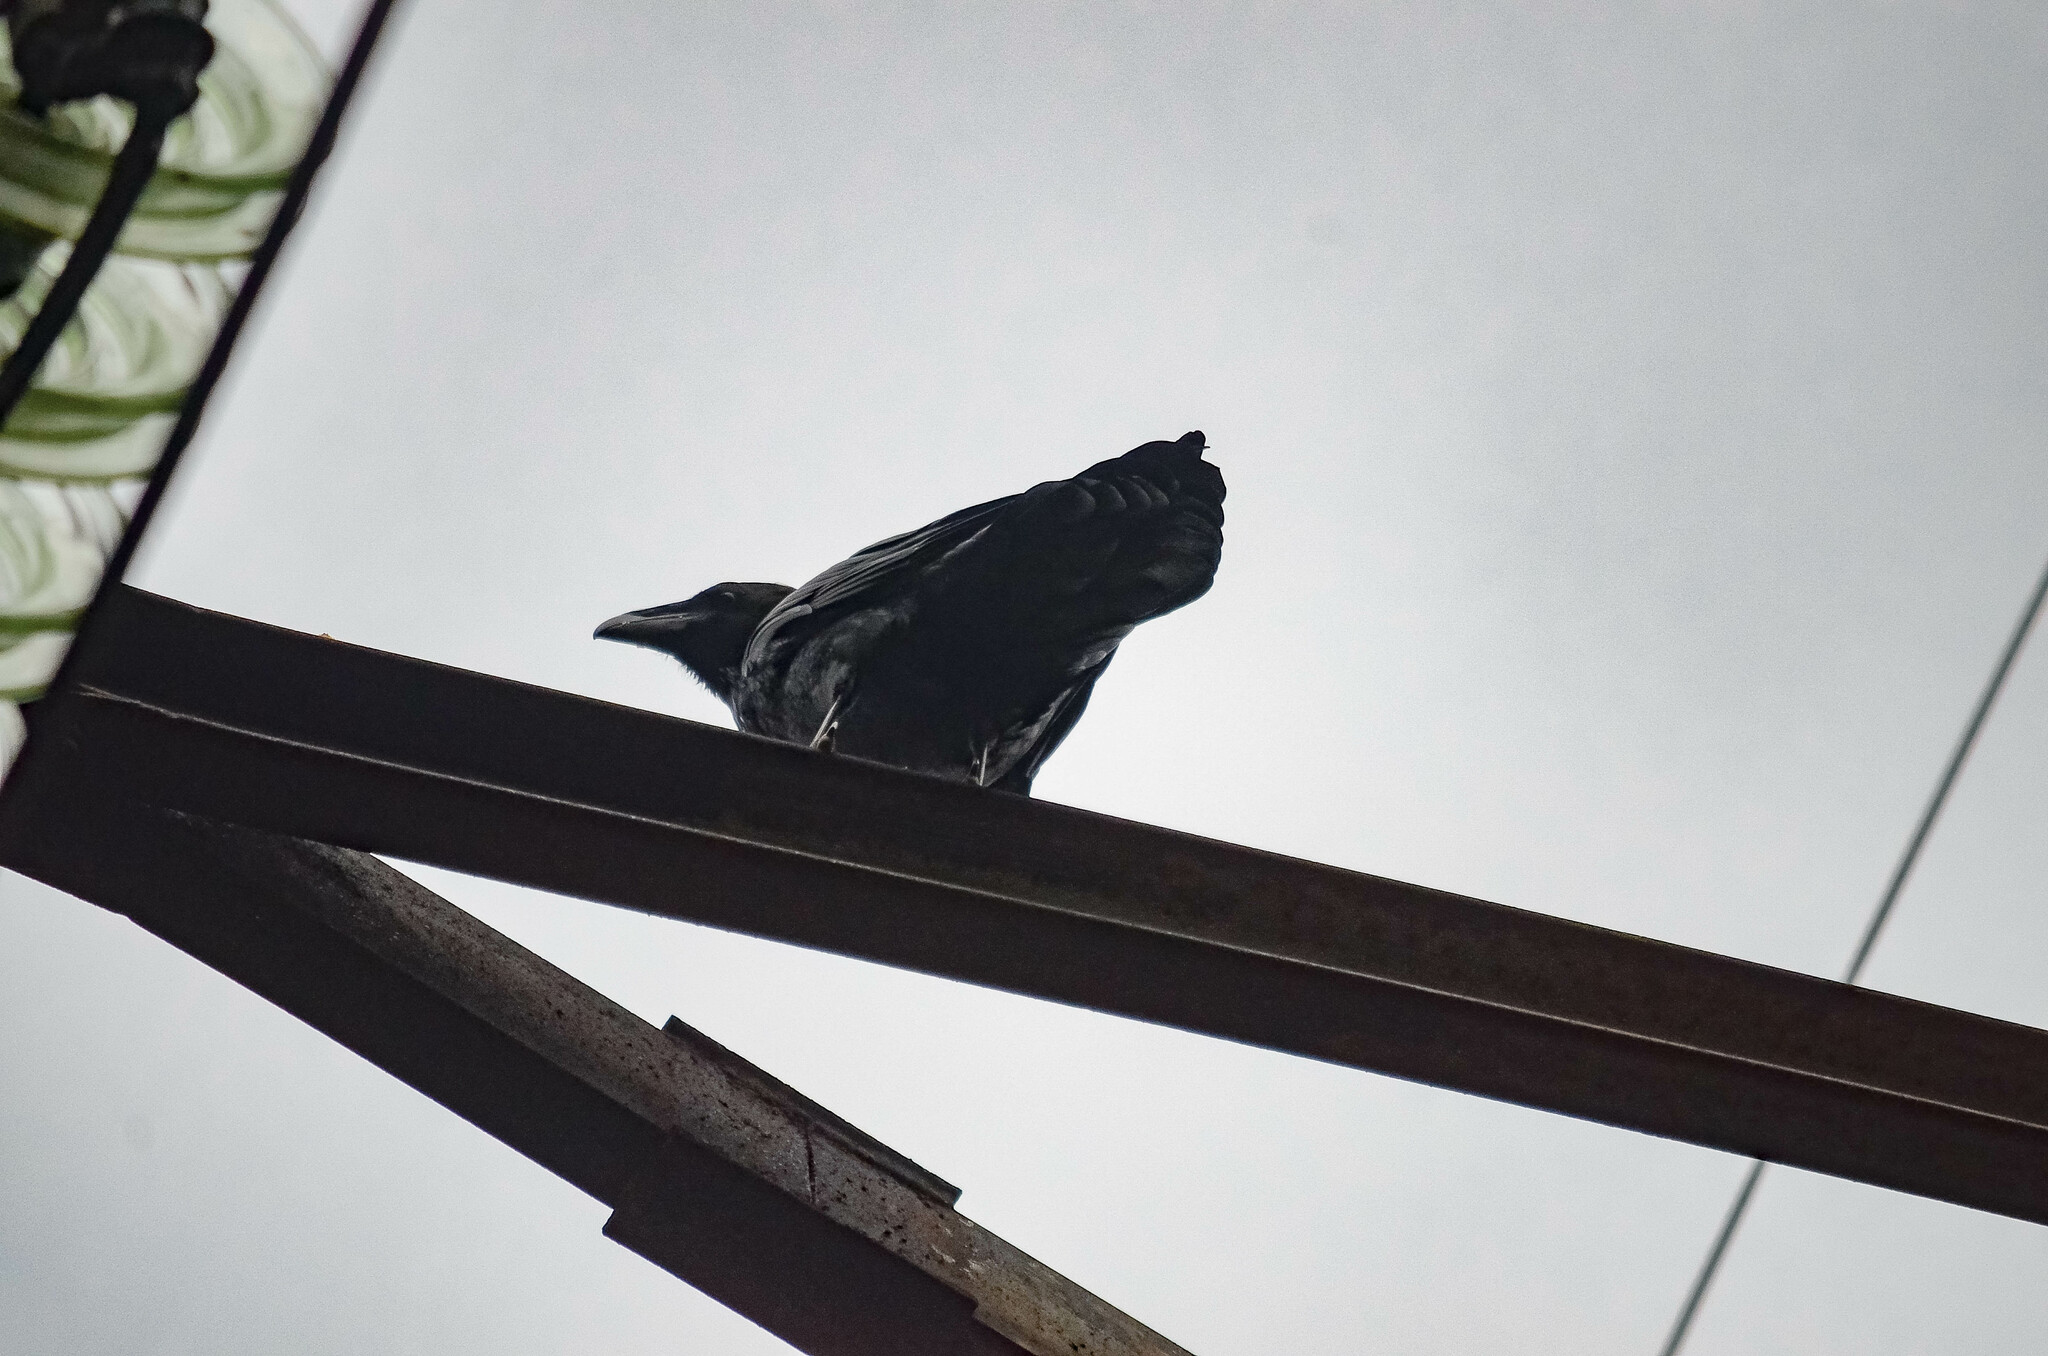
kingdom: Animalia
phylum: Chordata
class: Aves
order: Passeriformes
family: Corvidae
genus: Corvus
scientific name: Corvus corax
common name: Common raven
